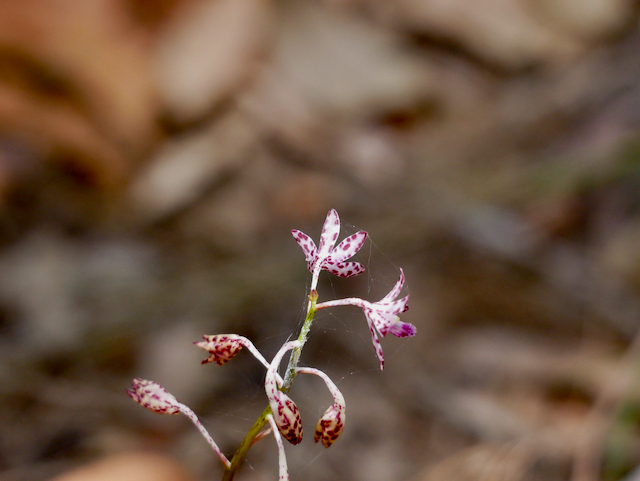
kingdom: Plantae
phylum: Tracheophyta
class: Liliopsida
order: Asparagales
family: Orchidaceae
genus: Dipodium
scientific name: Dipodium variegatum
